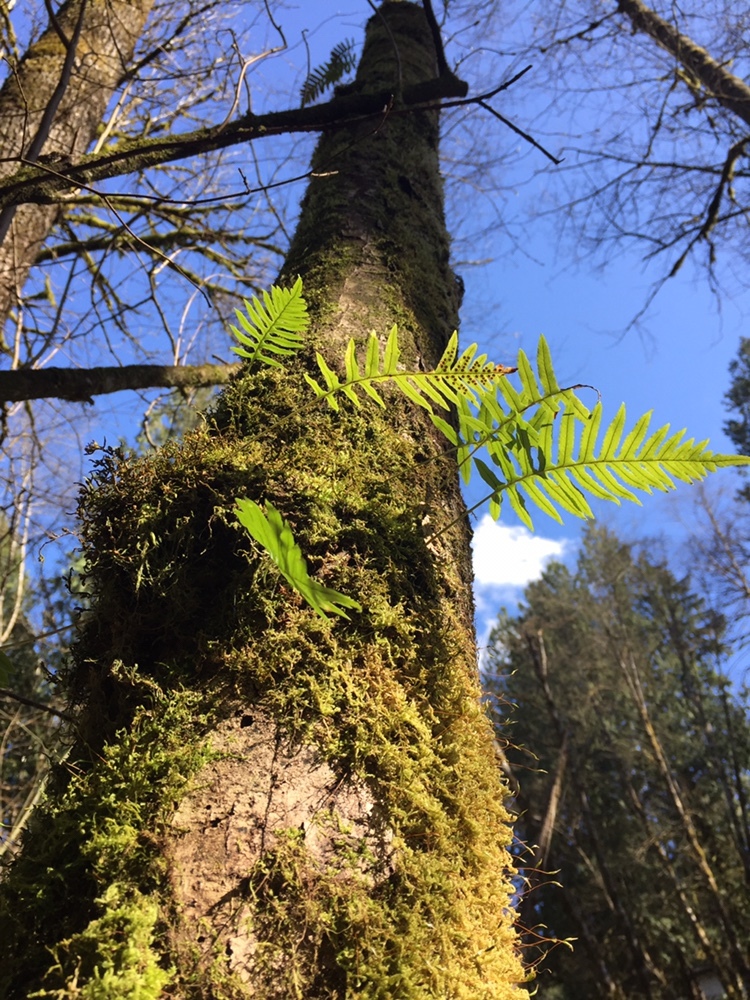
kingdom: Plantae
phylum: Tracheophyta
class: Polypodiopsida
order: Polypodiales
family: Polypodiaceae
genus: Polypodium
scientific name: Polypodium glycyrrhiza
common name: Licorice fern
